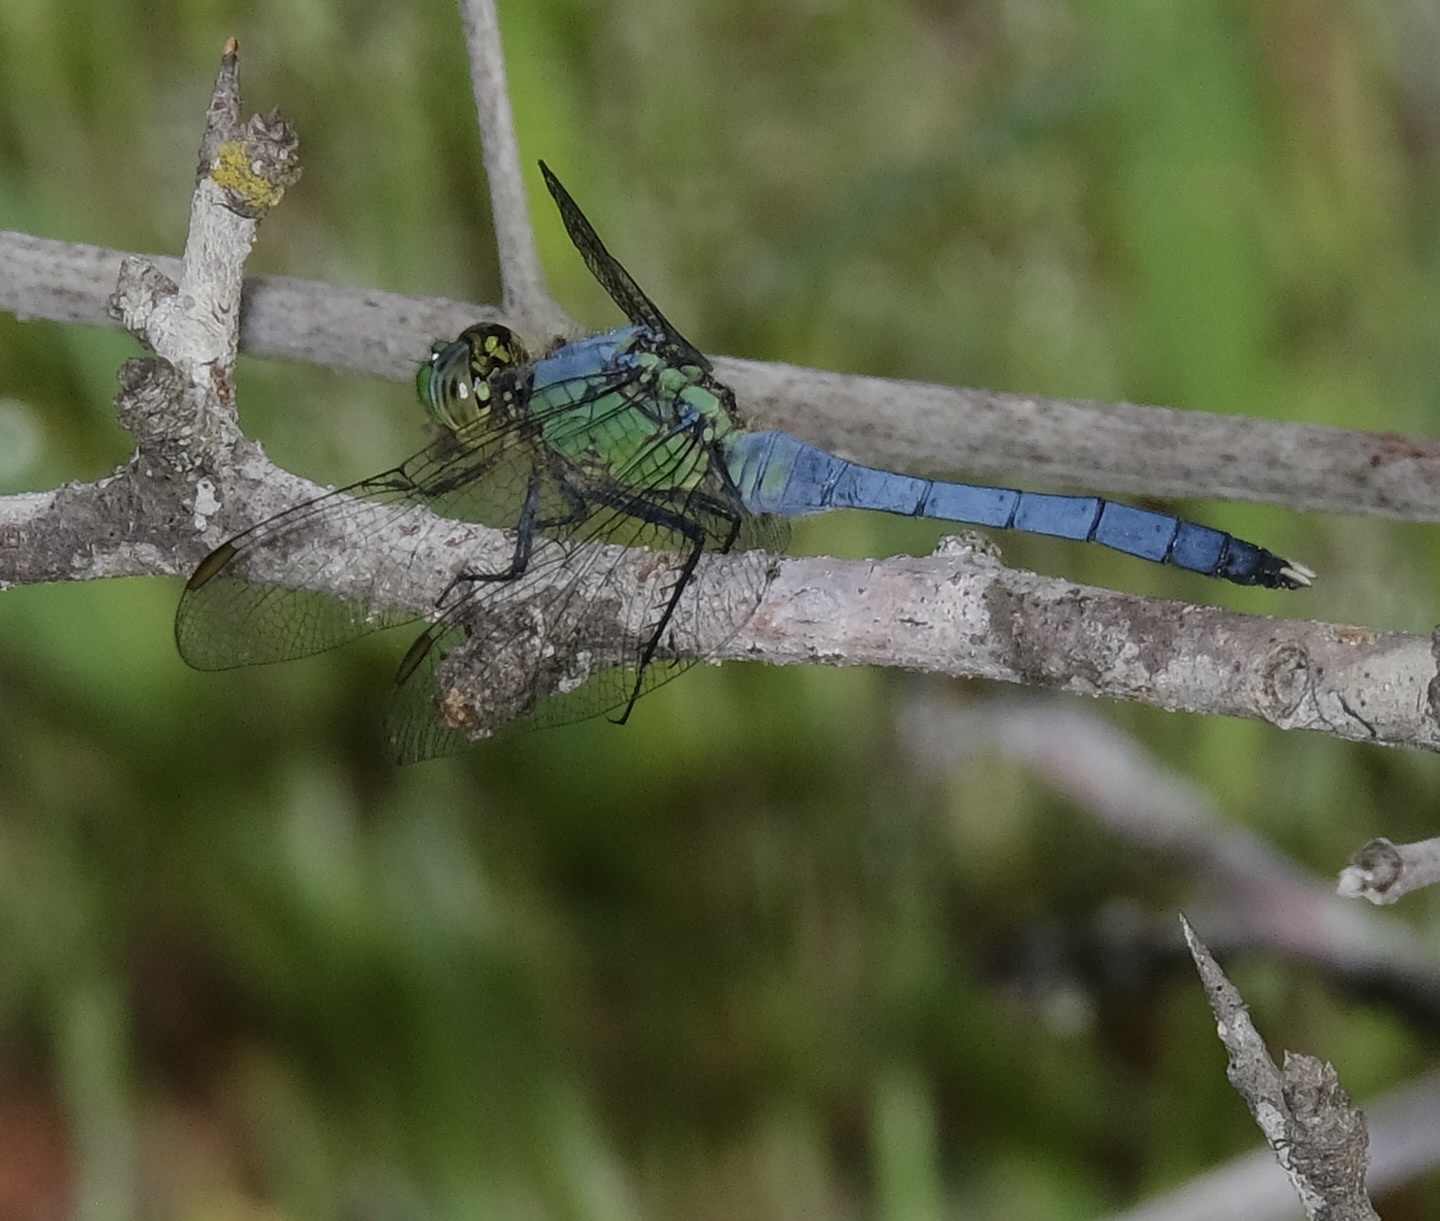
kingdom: Animalia
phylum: Arthropoda
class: Insecta
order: Odonata
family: Libellulidae
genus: Erythemis
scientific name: Erythemis simplicicollis
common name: Eastern pondhawk
